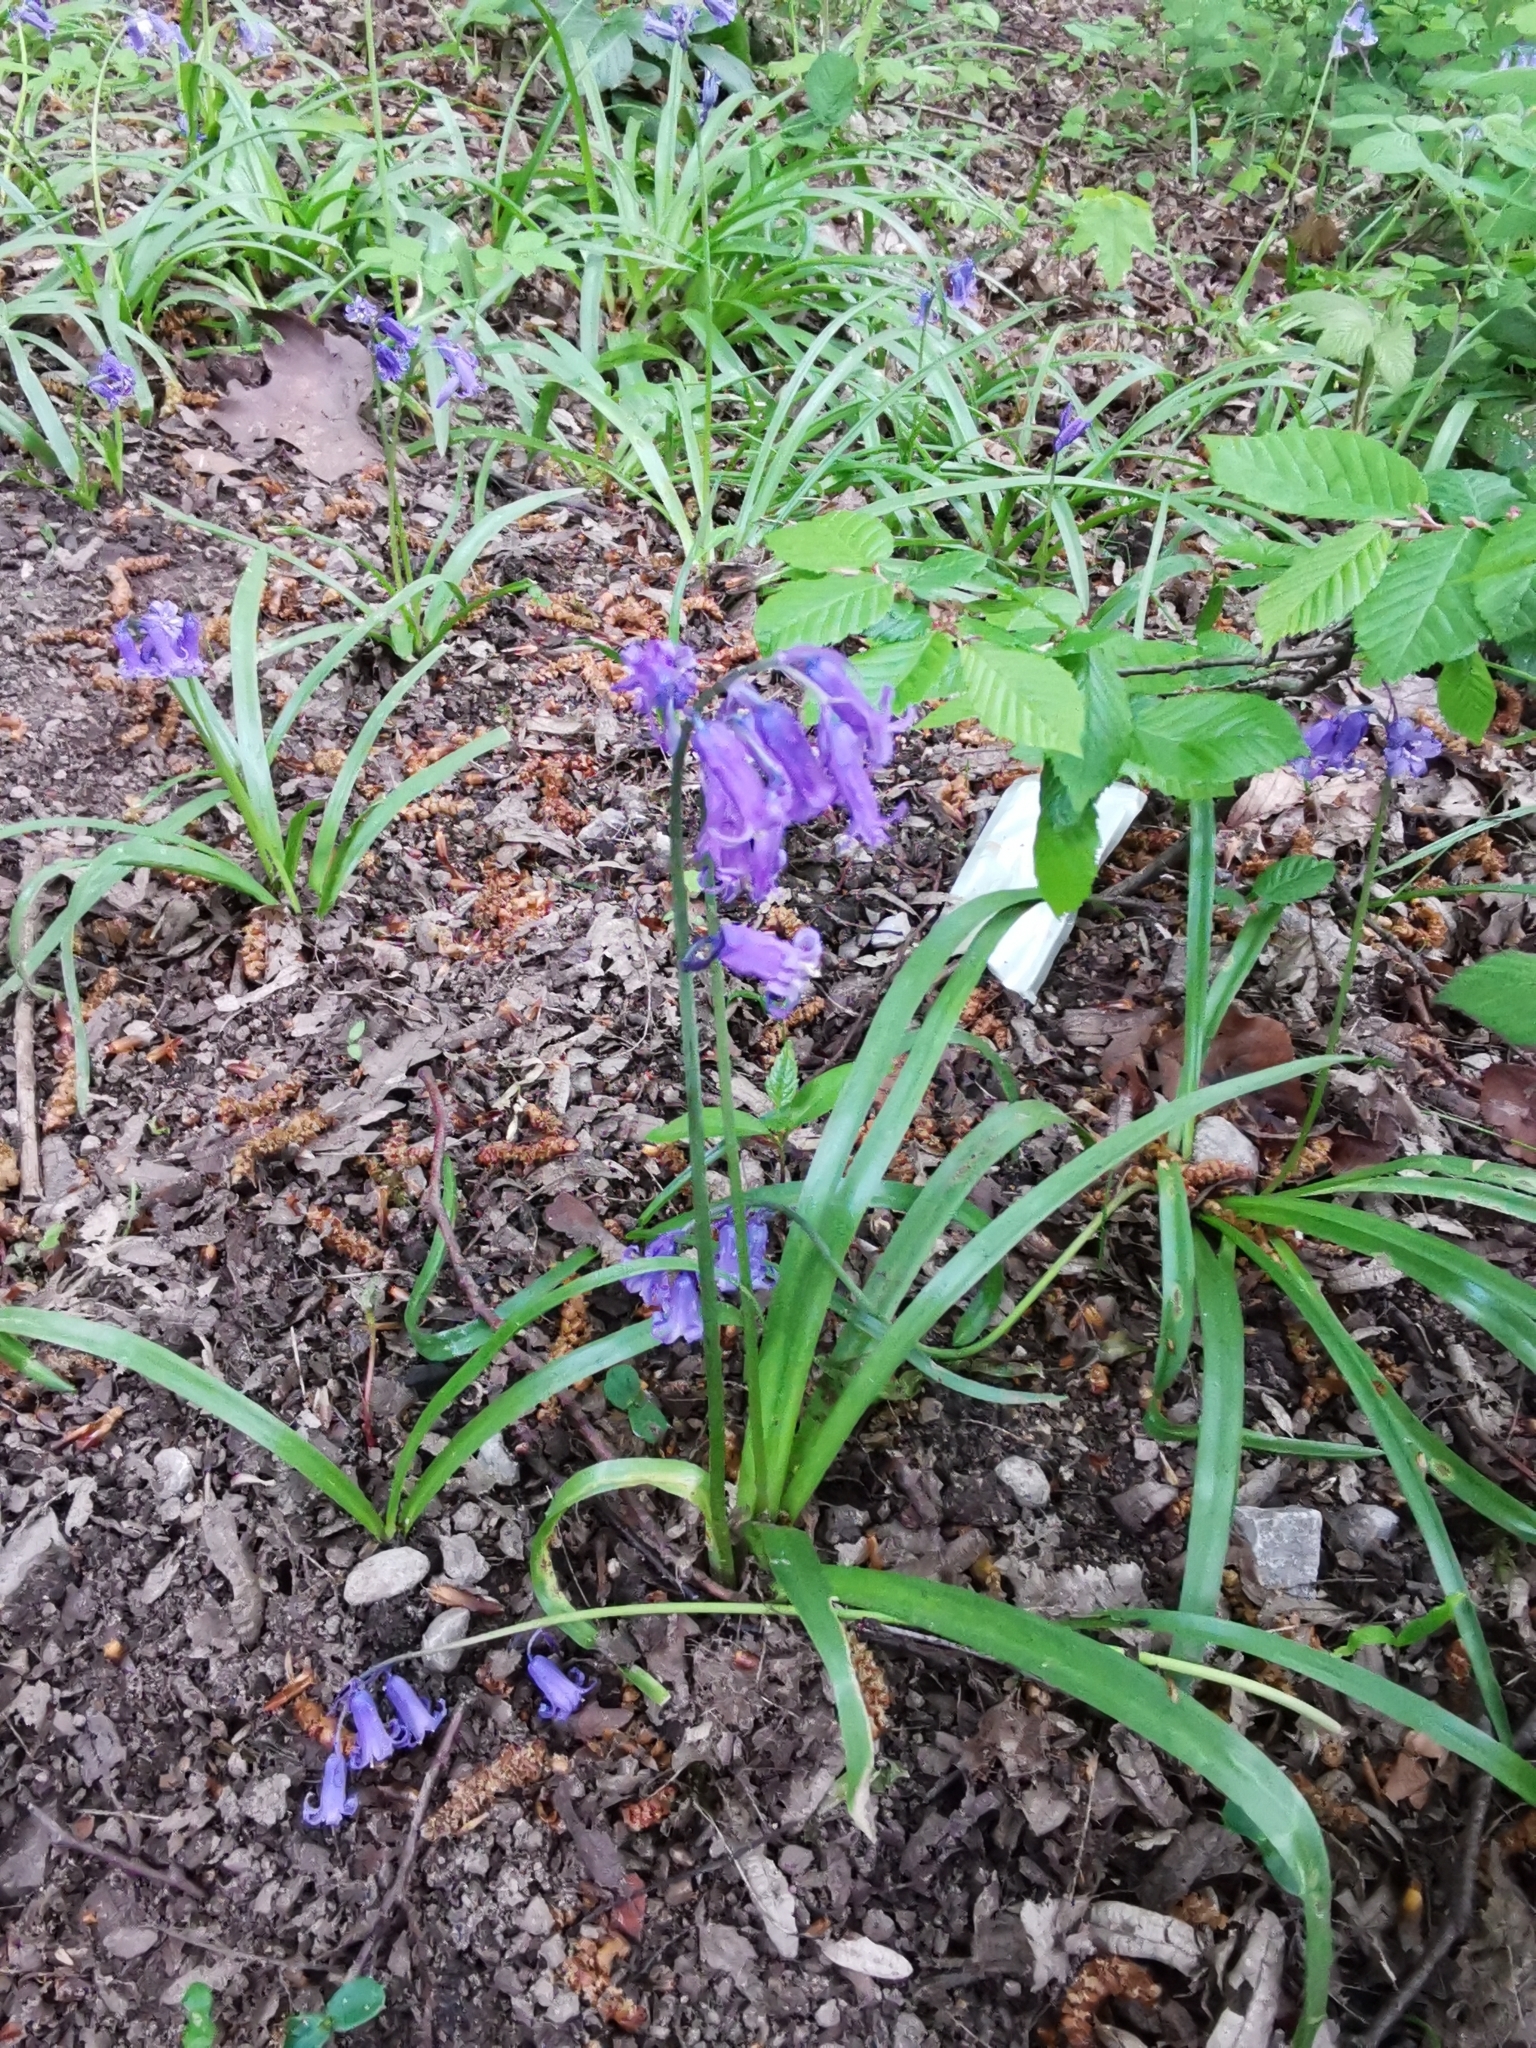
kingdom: Plantae
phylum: Tracheophyta
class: Liliopsida
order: Asparagales
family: Asparagaceae
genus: Hyacinthoides
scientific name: Hyacinthoides non-scripta
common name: Bluebell
